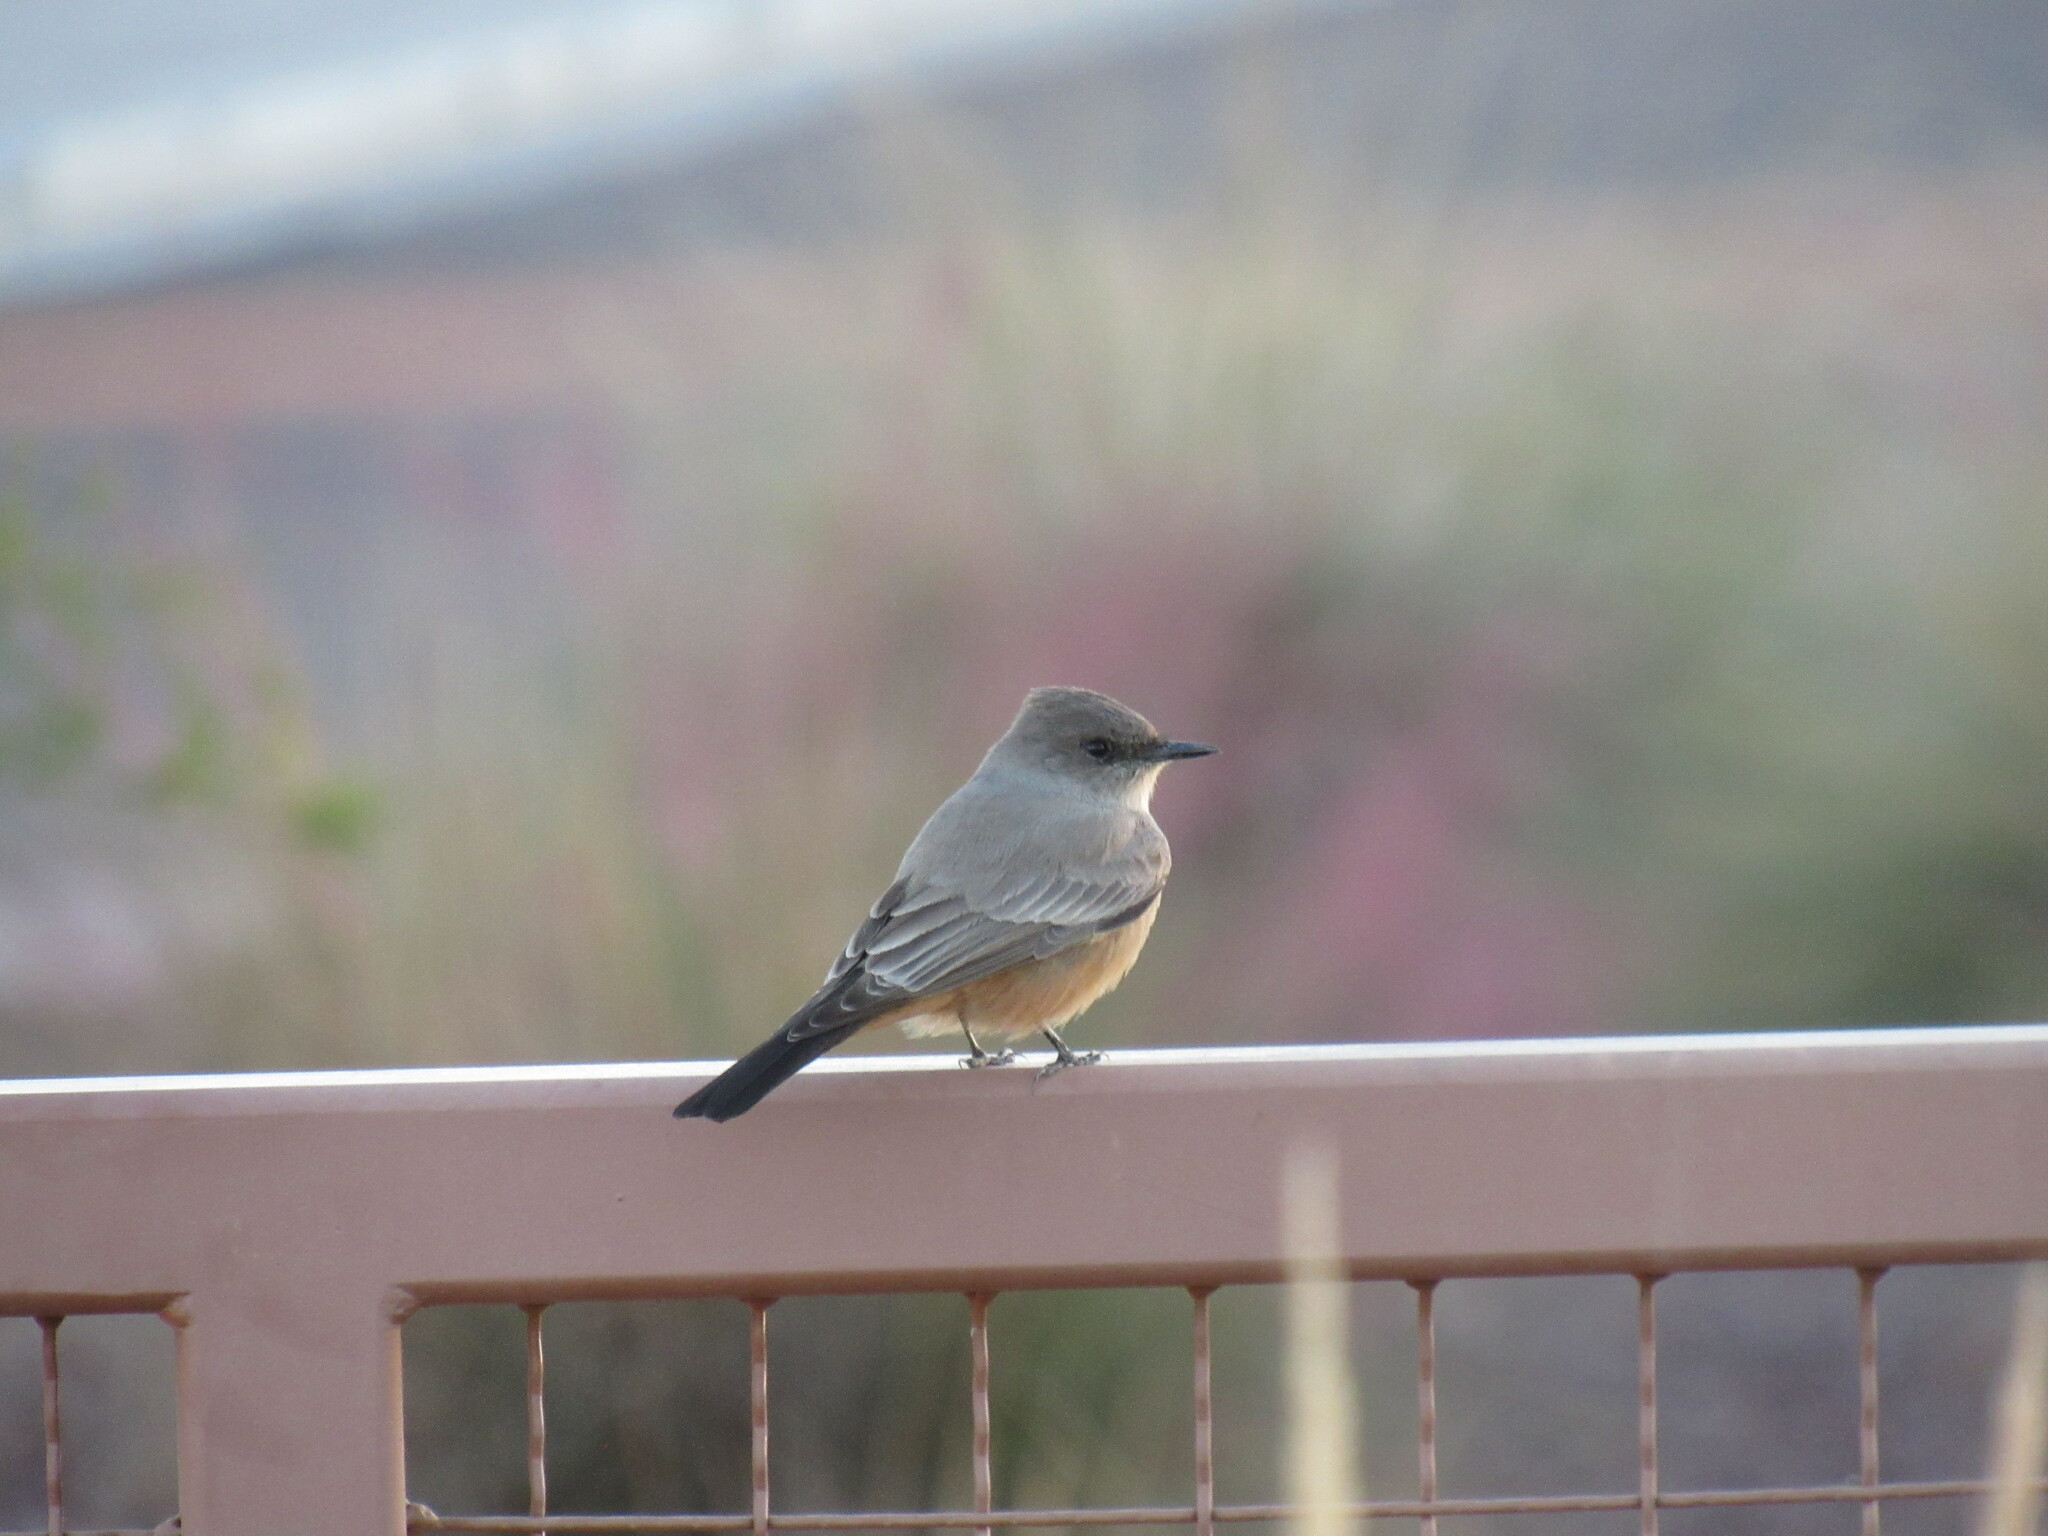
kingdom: Animalia
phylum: Chordata
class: Aves
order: Passeriformes
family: Tyrannidae
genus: Sayornis
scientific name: Sayornis saya
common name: Say's phoebe
